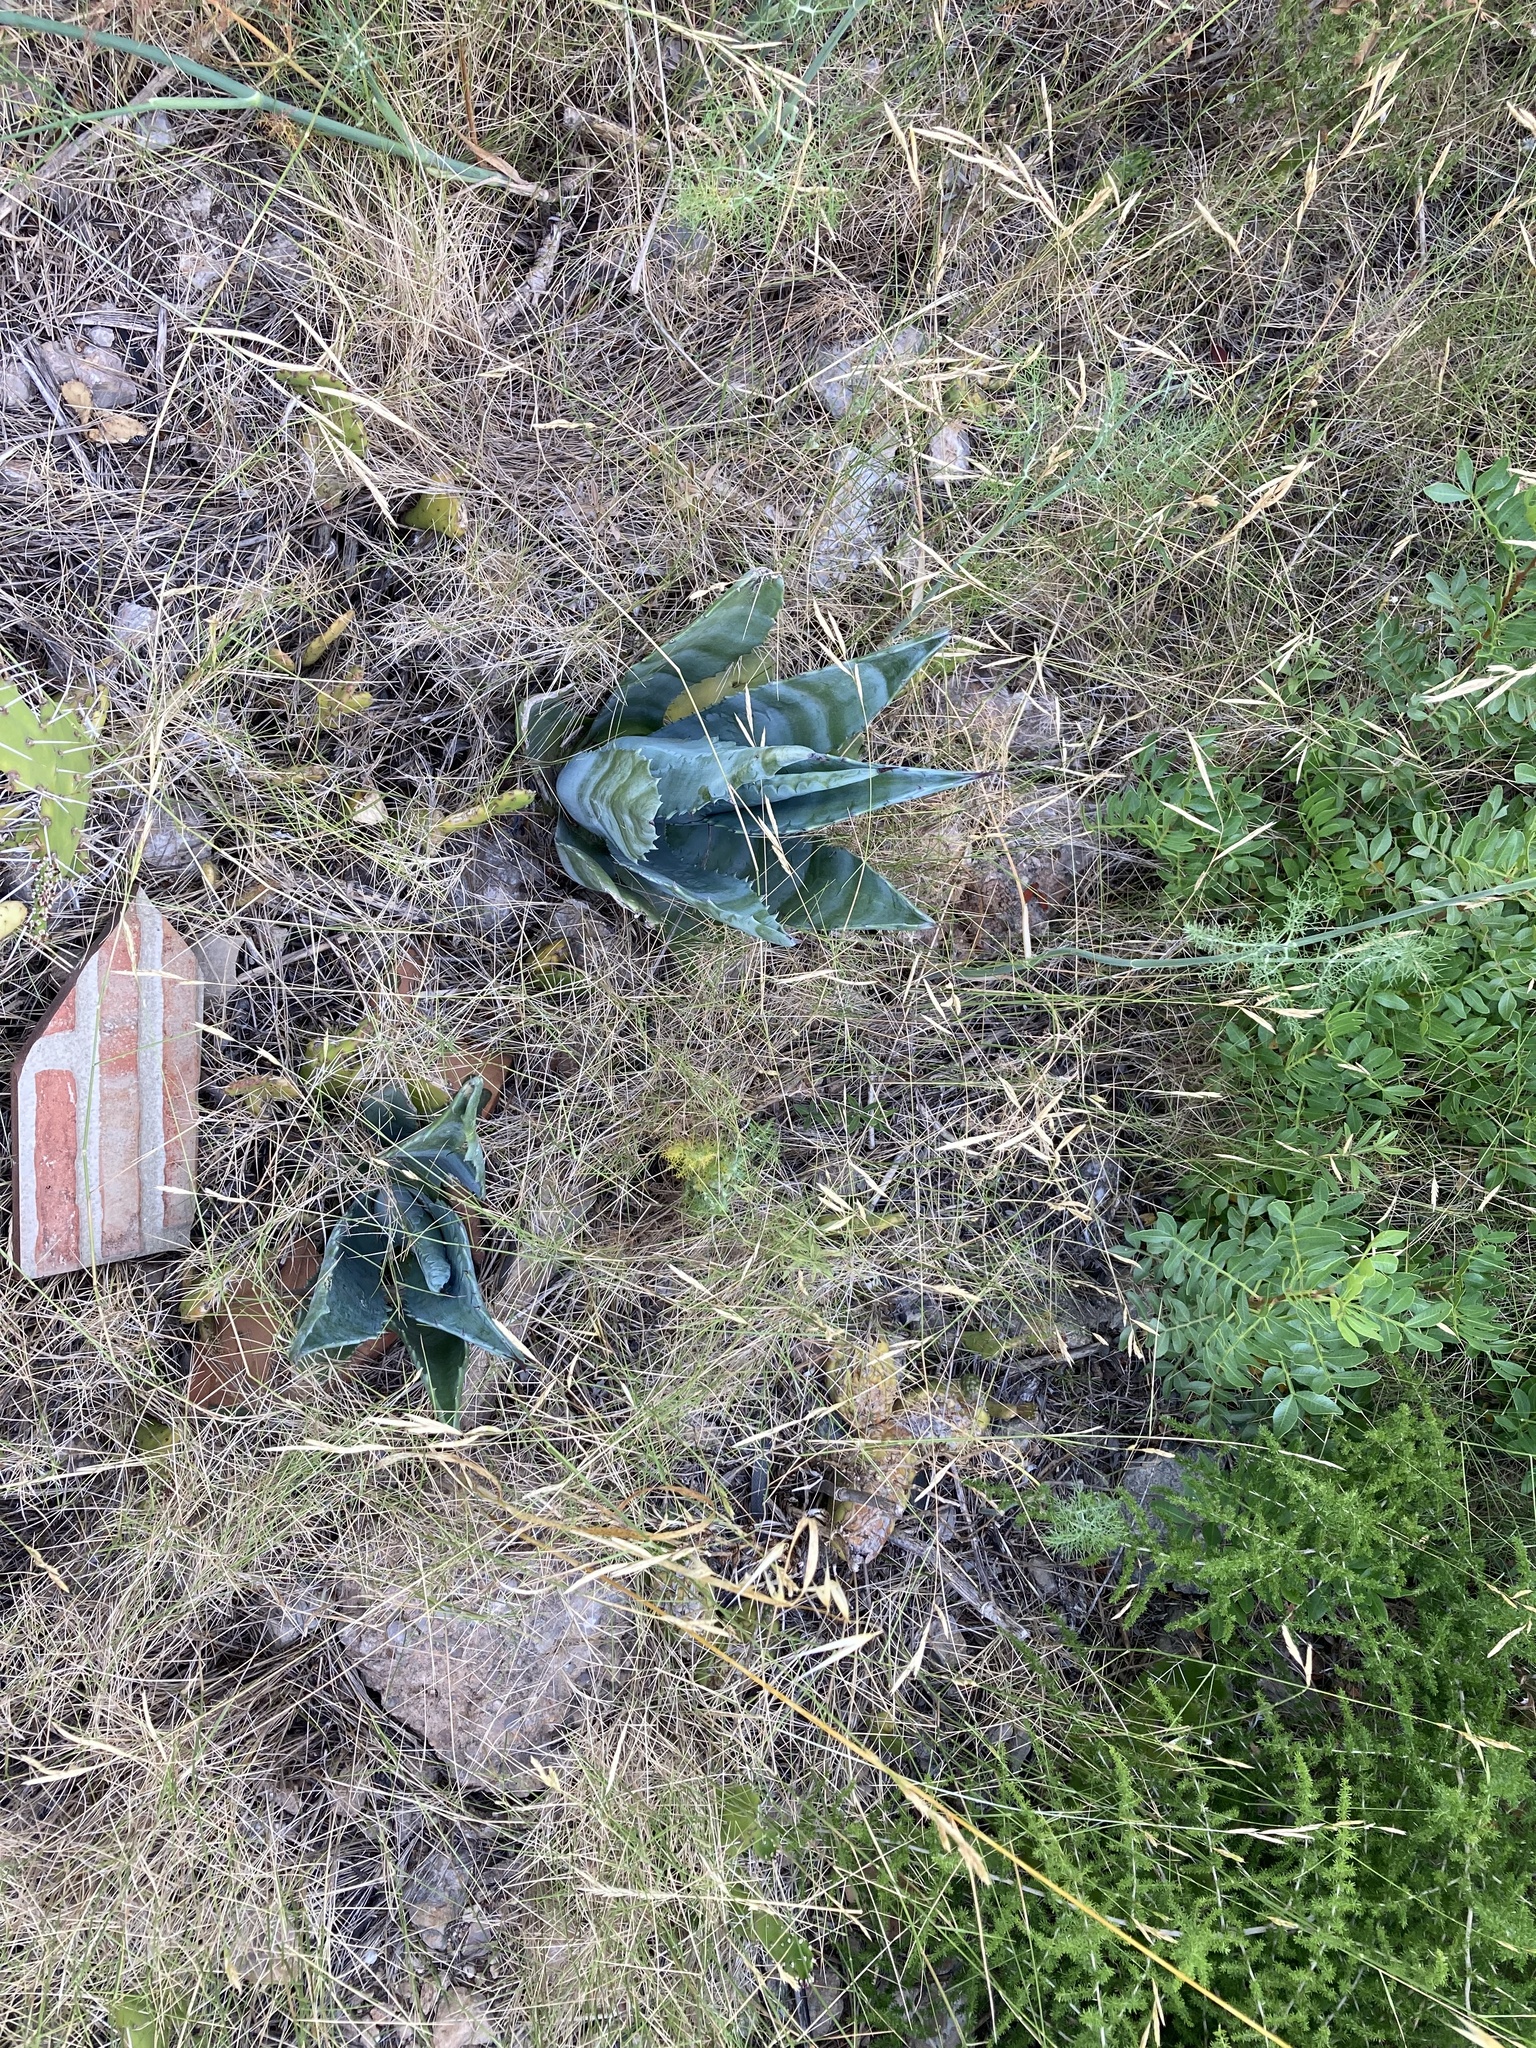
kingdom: Plantae
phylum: Tracheophyta
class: Liliopsida
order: Asparagales
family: Asparagaceae
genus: Agave
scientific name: Agave americana
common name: Centuryplant
